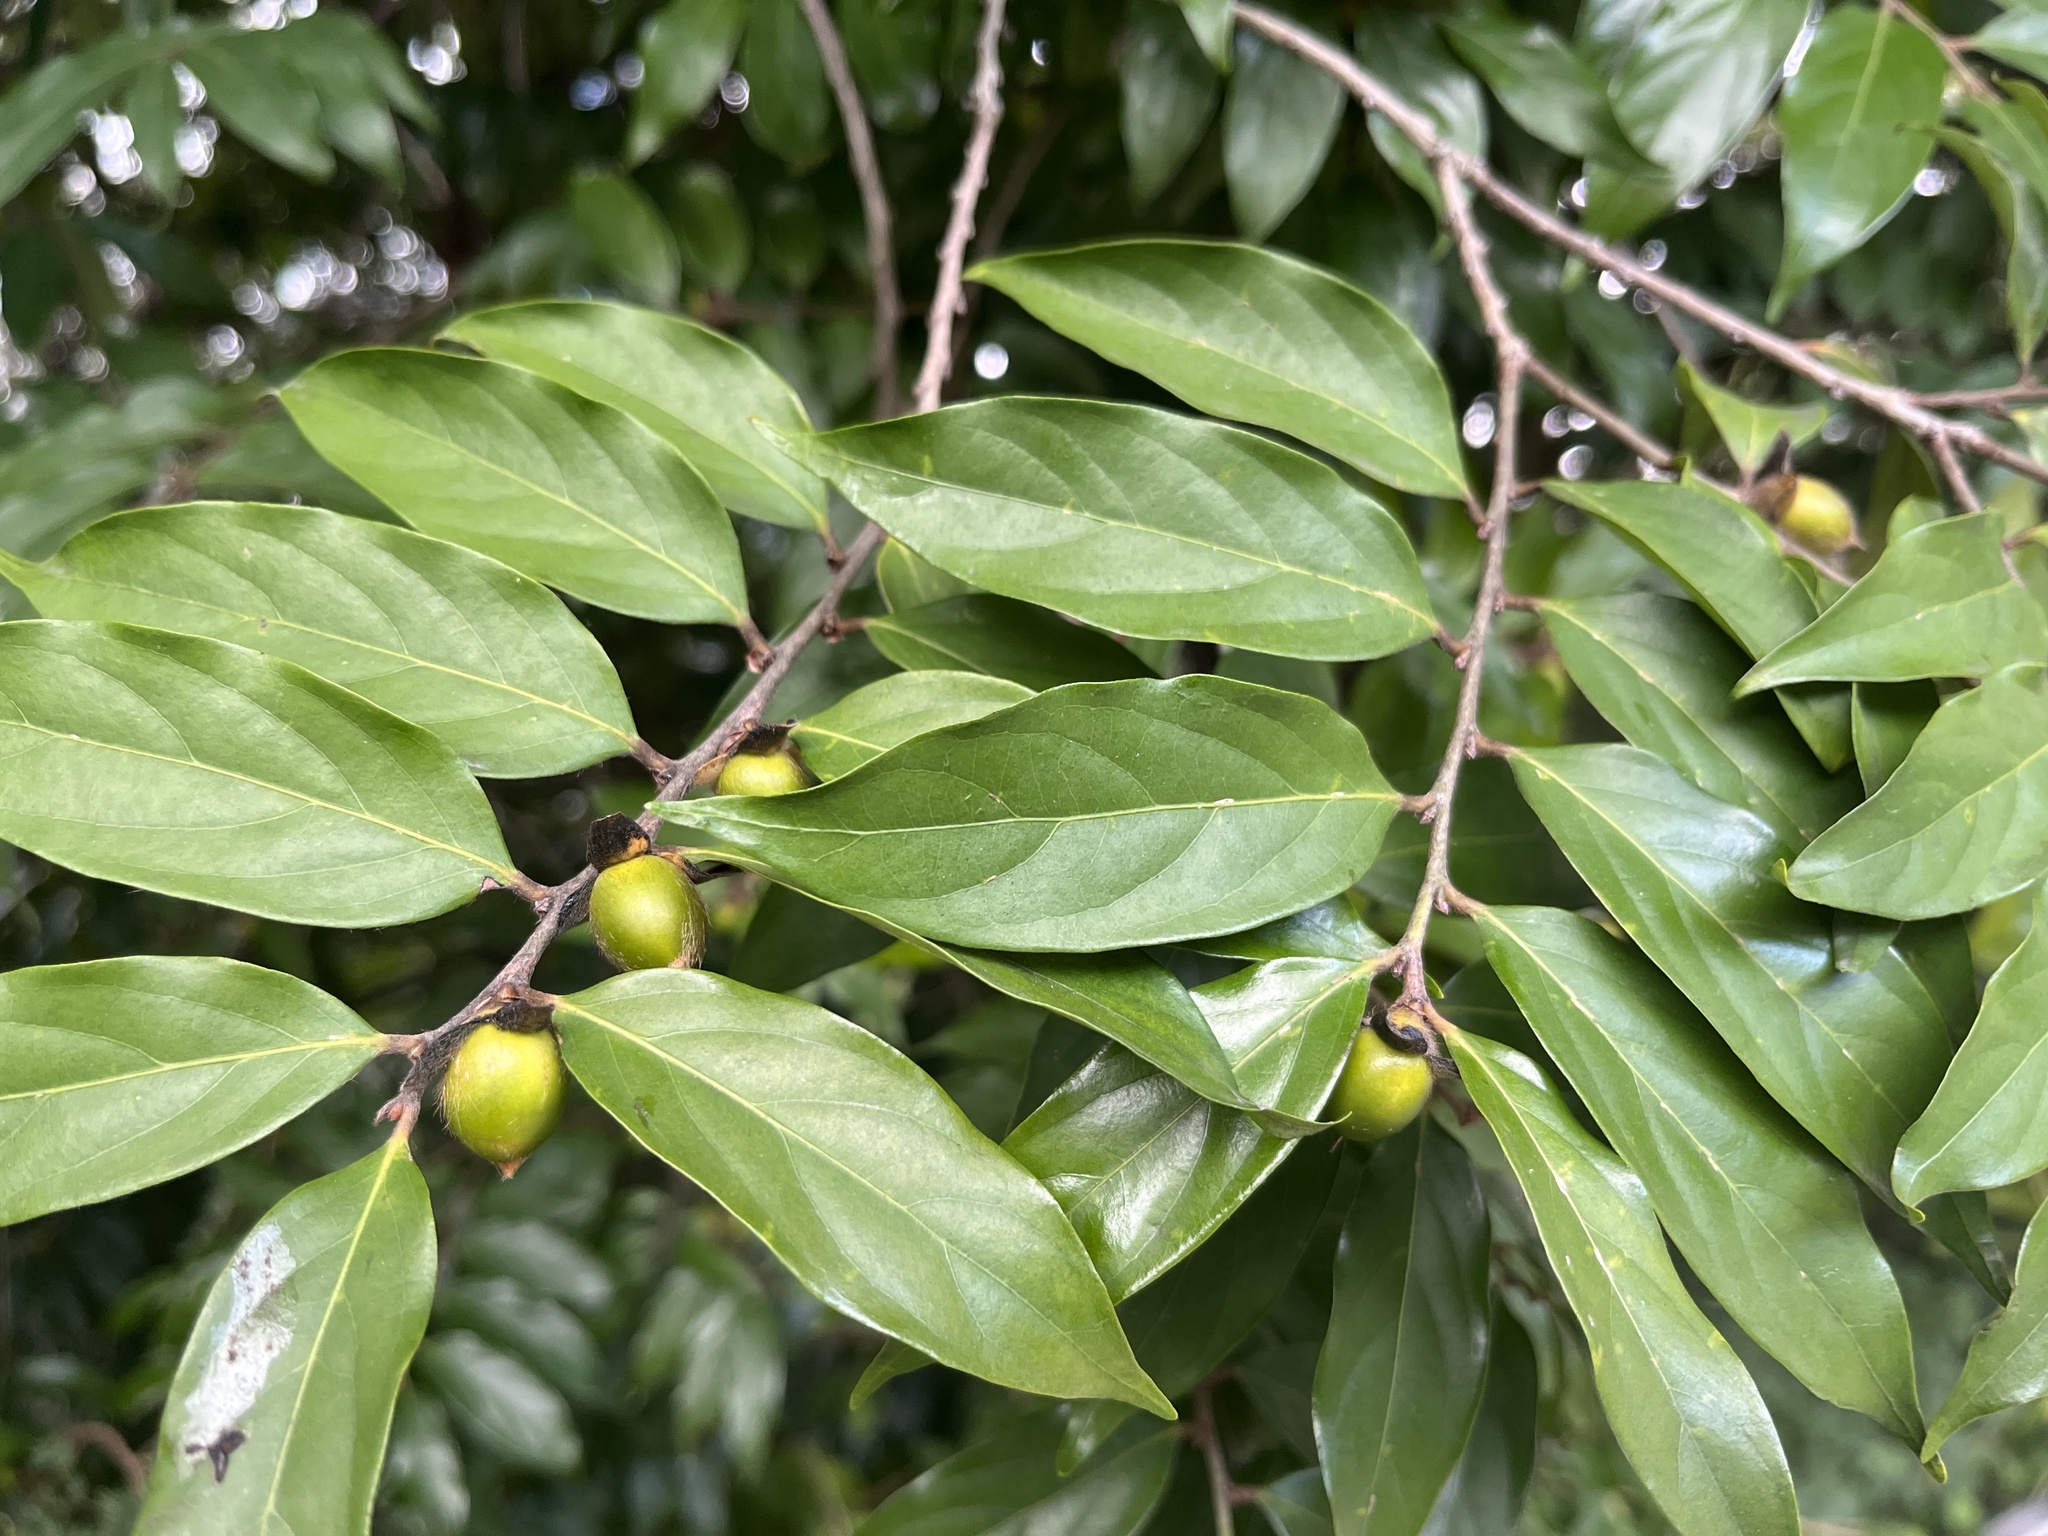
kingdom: Plantae
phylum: Tracheophyta
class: Magnoliopsida
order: Ericales
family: Ebenaceae
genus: Diospyros
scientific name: Diospyros eriantha
